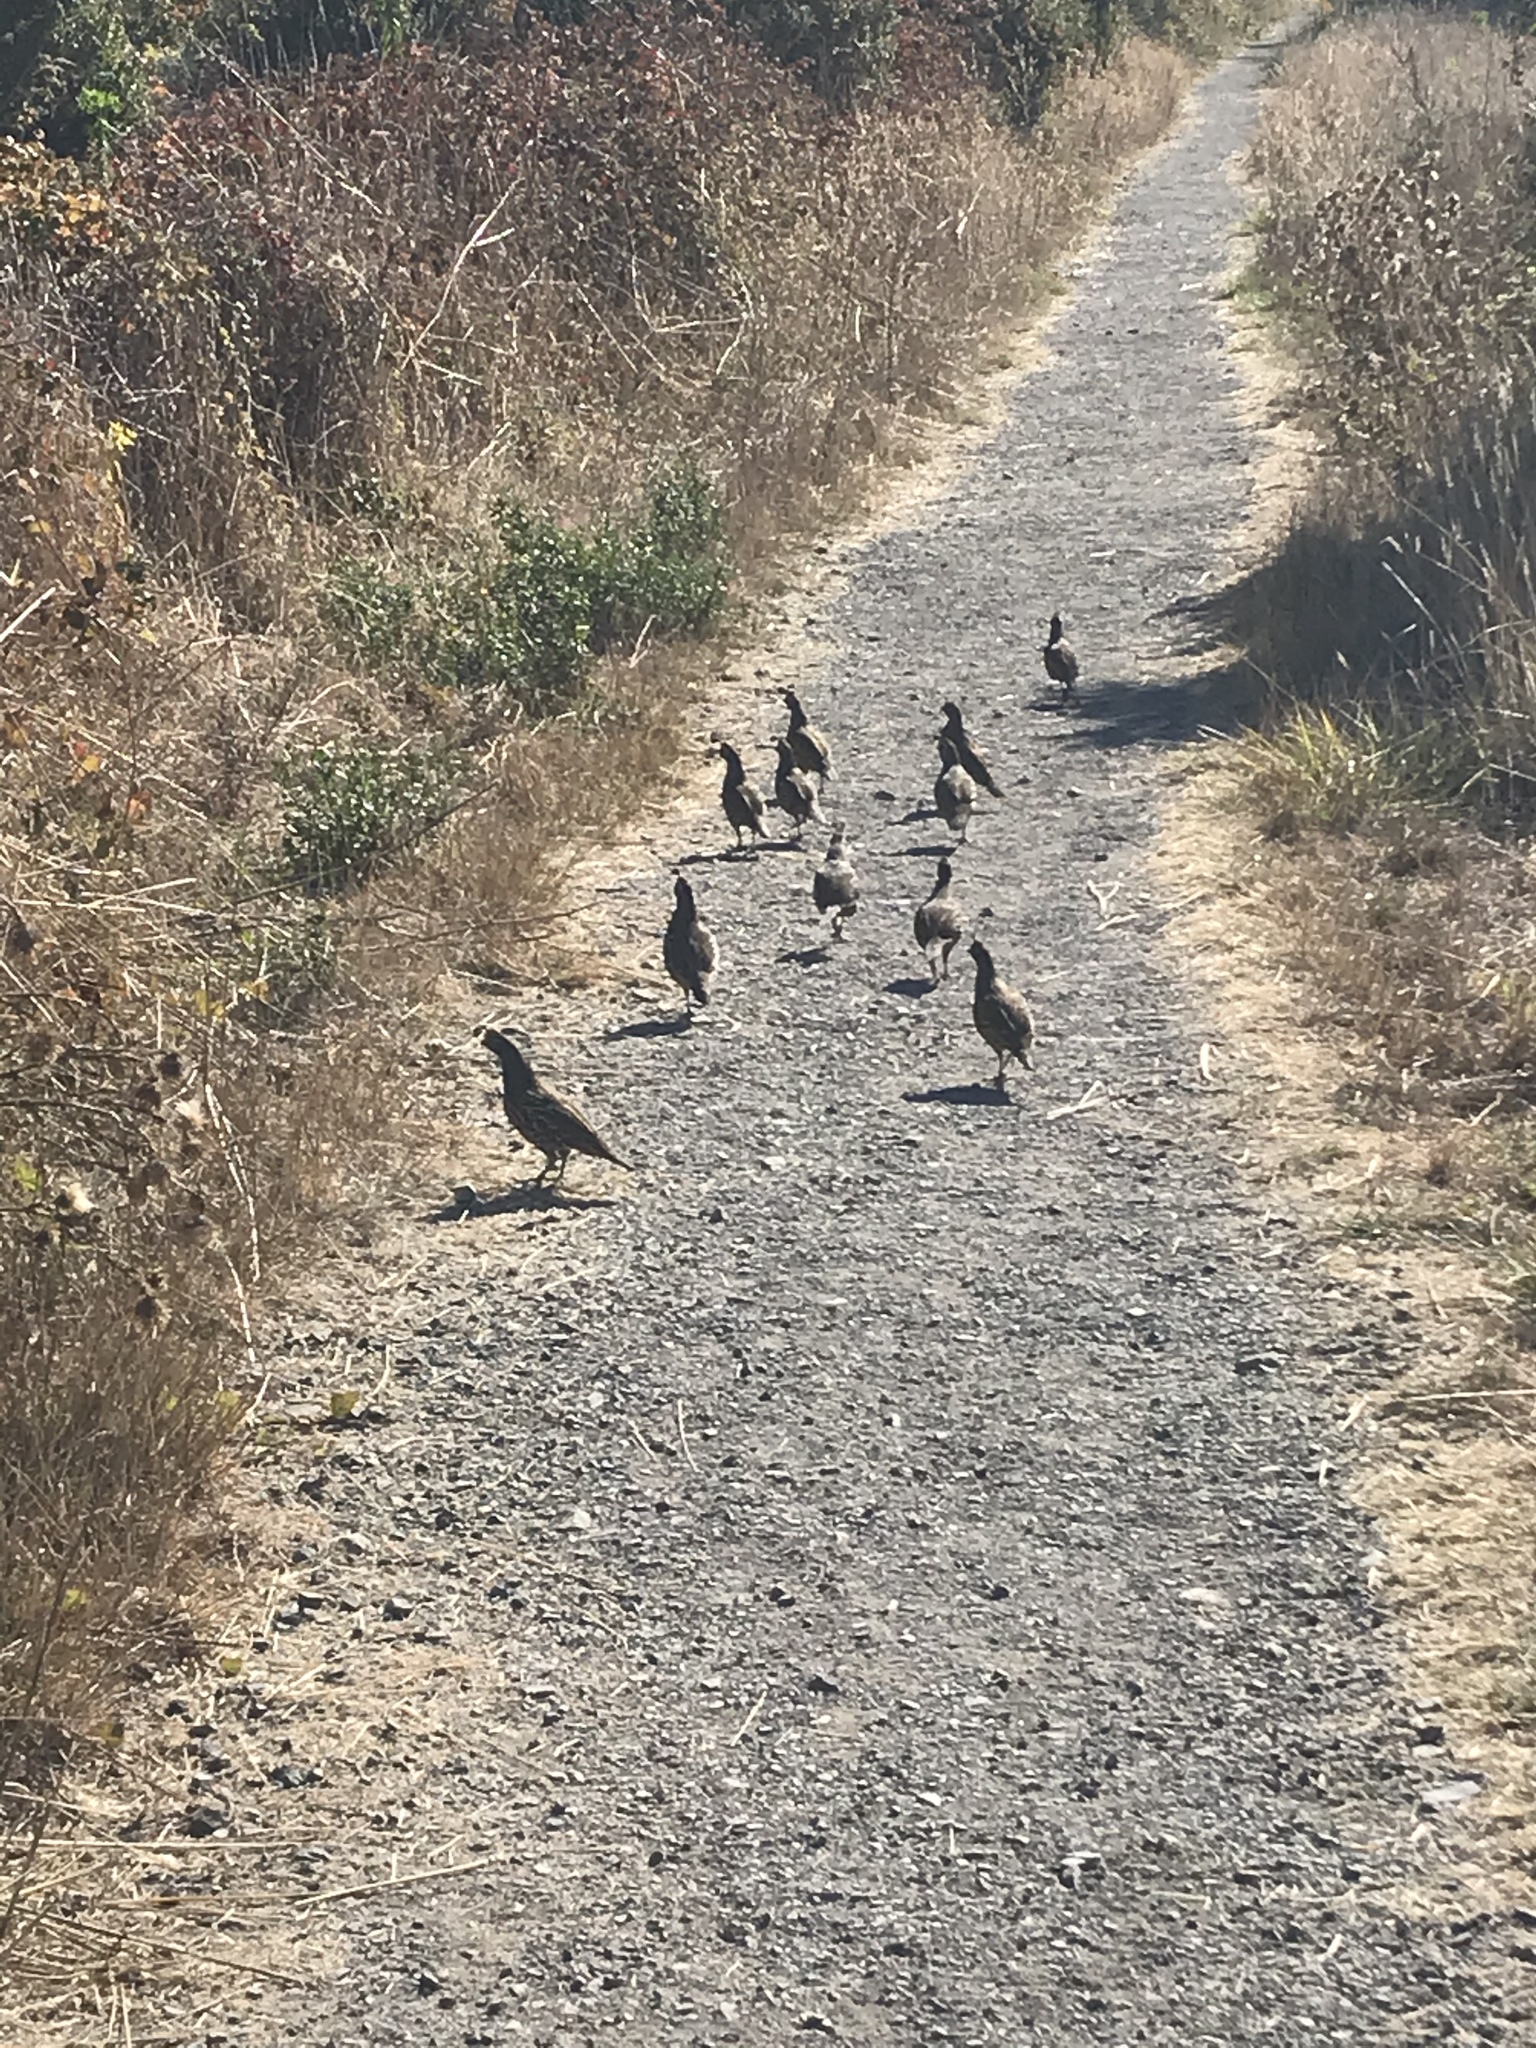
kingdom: Animalia
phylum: Chordata
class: Aves
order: Galliformes
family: Odontophoridae
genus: Callipepla
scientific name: Callipepla californica
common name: California quail
